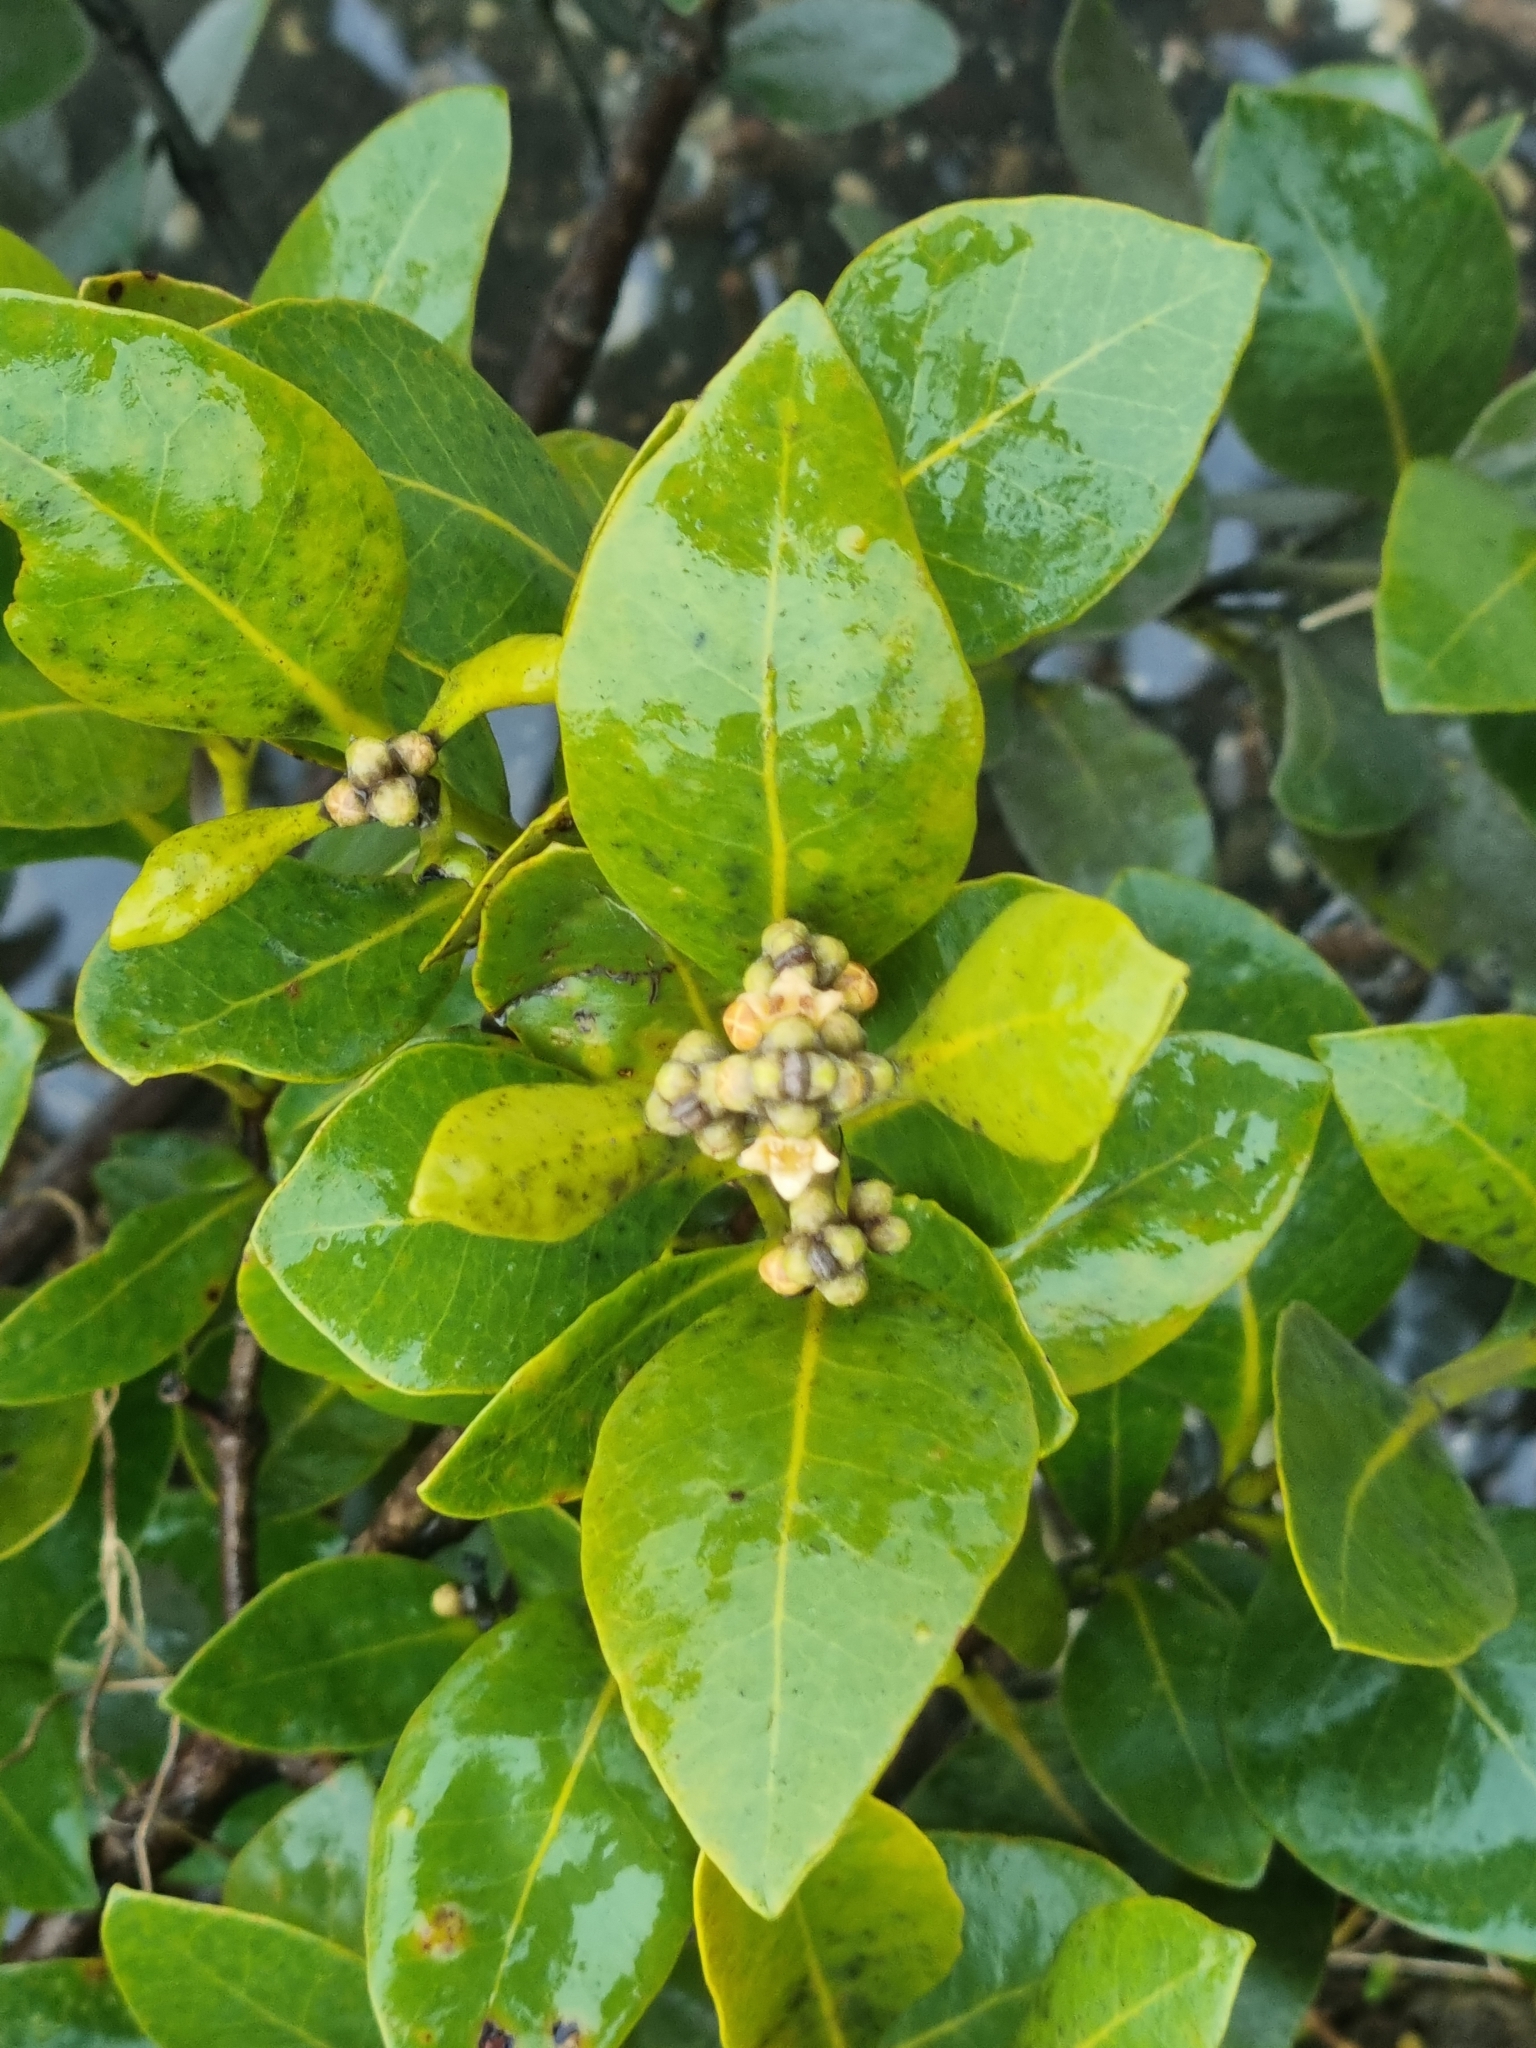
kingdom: Plantae
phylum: Tracheophyta
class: Magnoliopsida
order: Lamiales
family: Acanthaceae
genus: Avicennia
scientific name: Avicennia marina
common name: Gray mangrove
